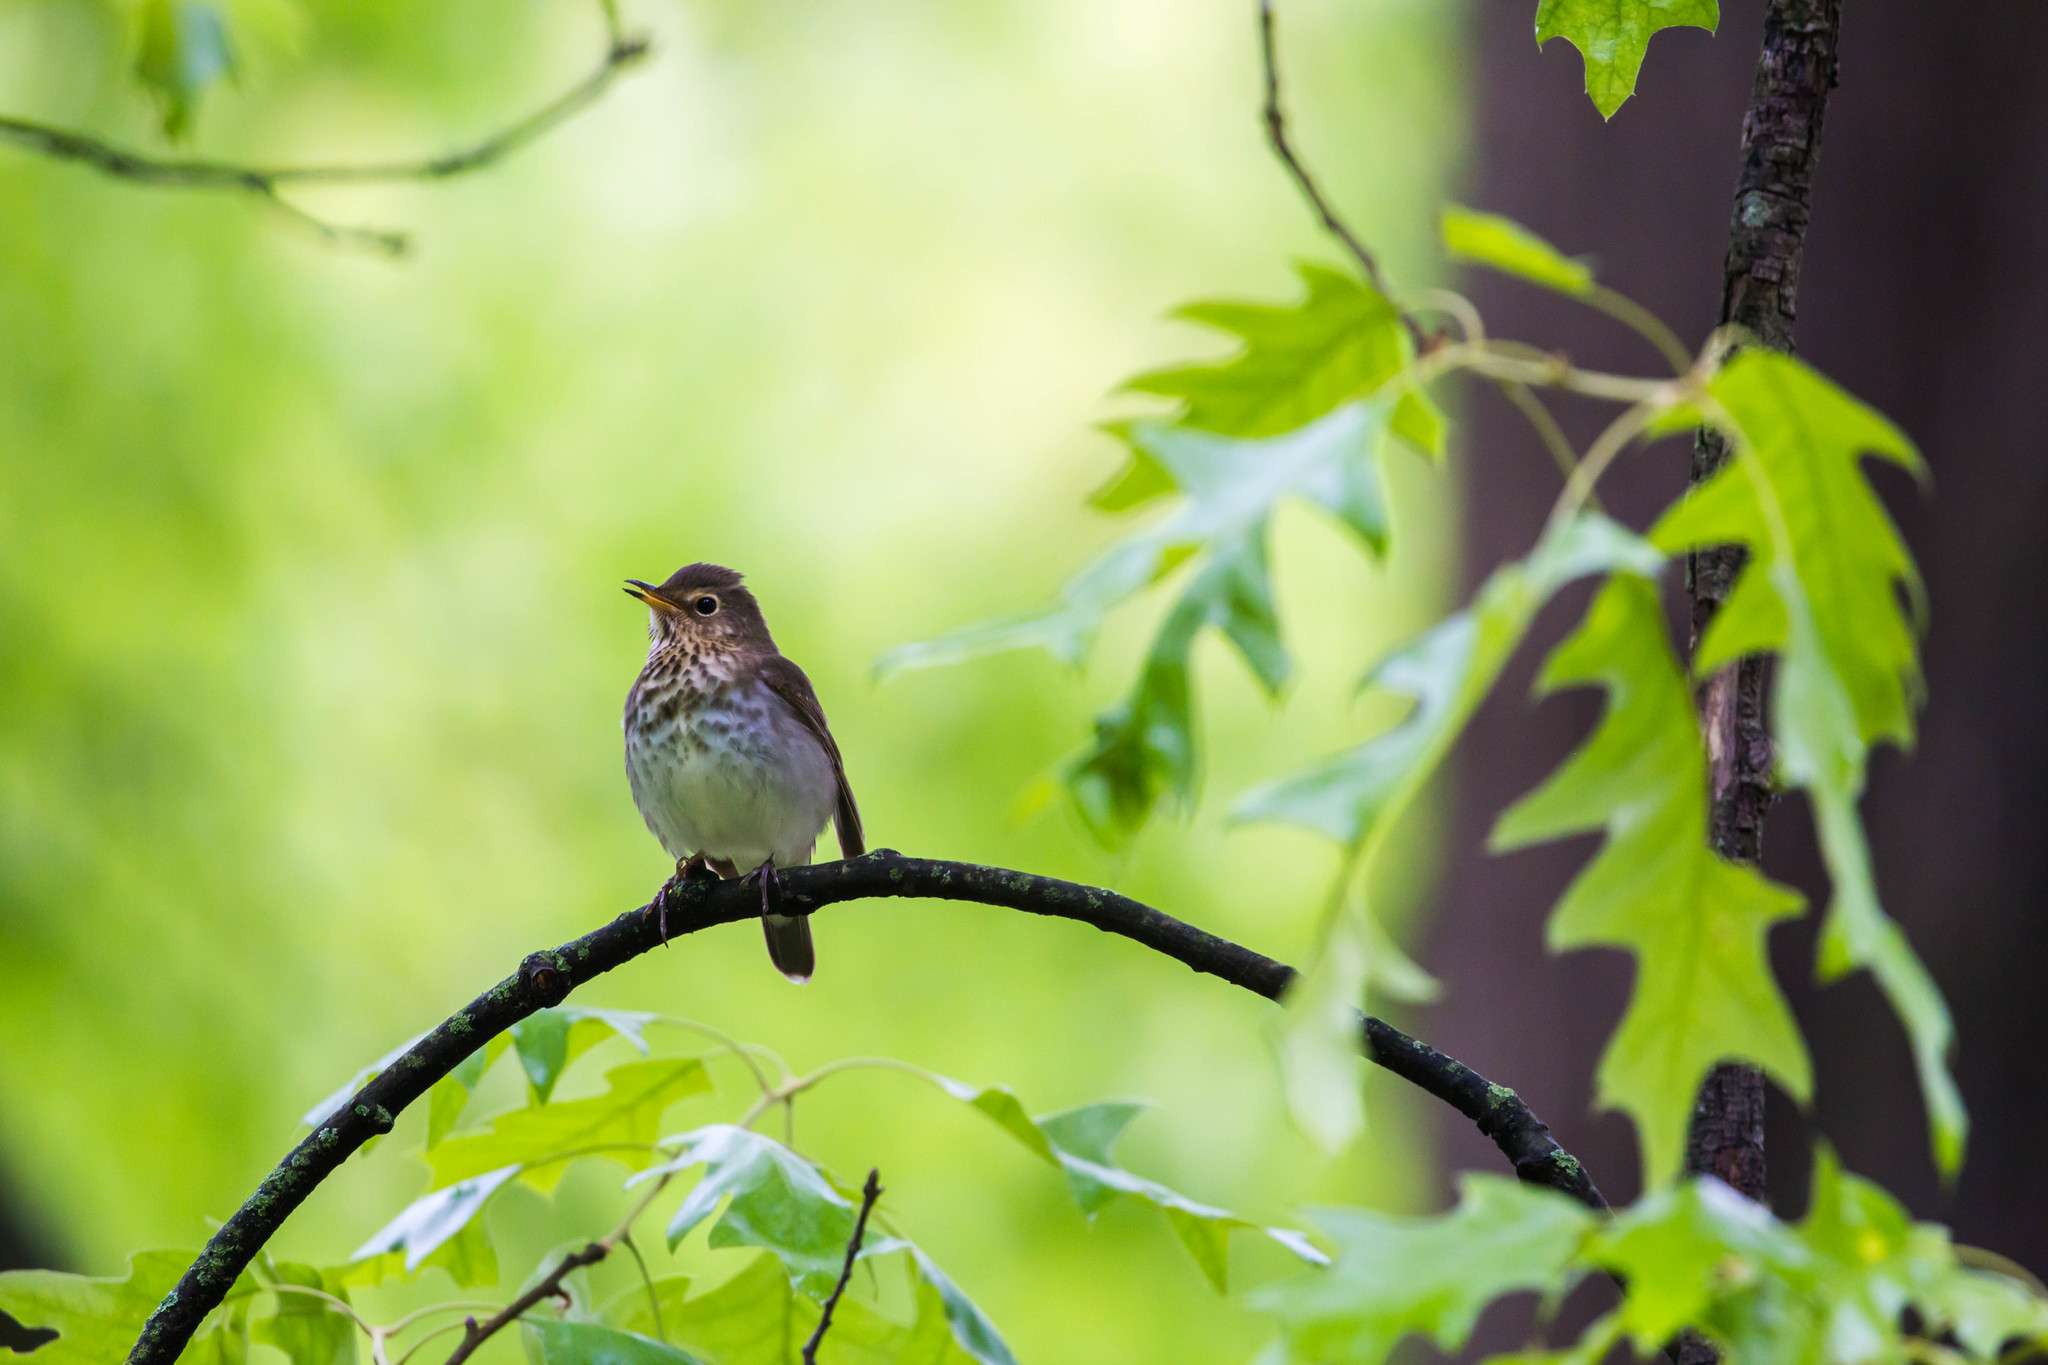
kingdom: Animalia
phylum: Chordata
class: Aves
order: Passeriformes
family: Turdidae
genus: Catharus
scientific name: Catharus ustulatus
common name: Swainson's thrush
